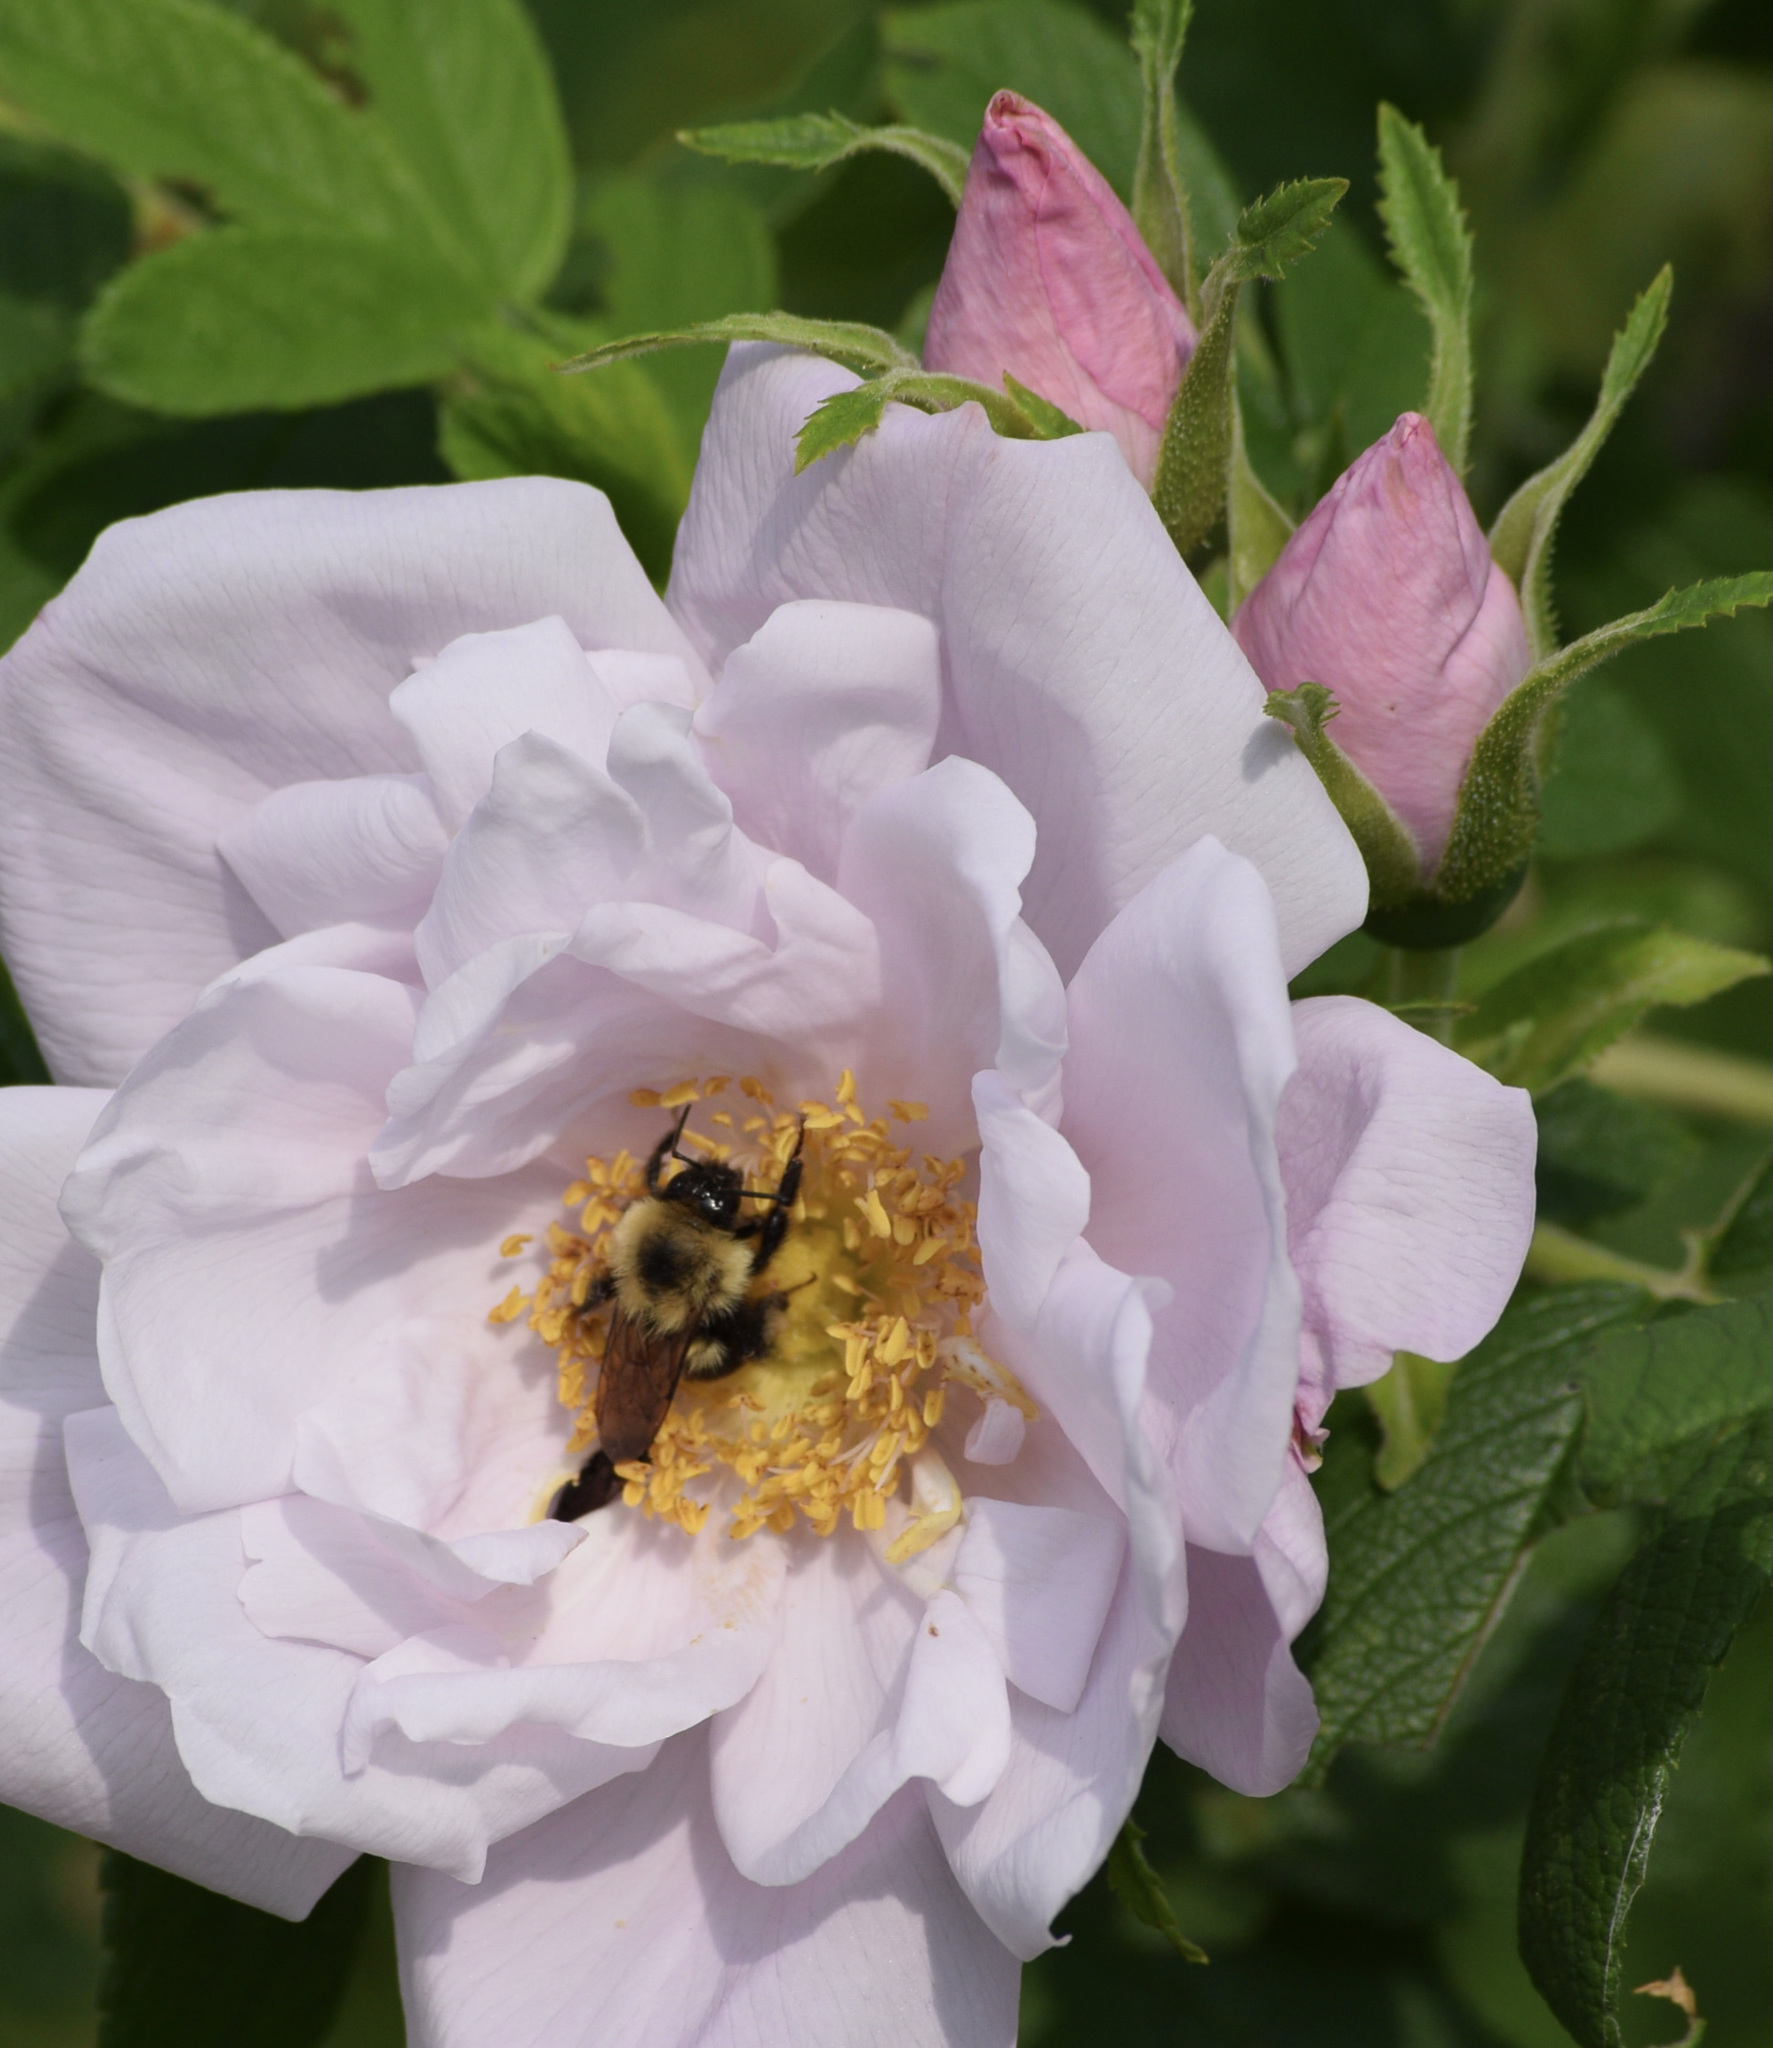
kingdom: Animalia
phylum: Arthropoda
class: Insecta
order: Hymenoptera
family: Apidae
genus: Bombus
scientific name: Bombus bimaculatus
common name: Two-spotted bumble bee
